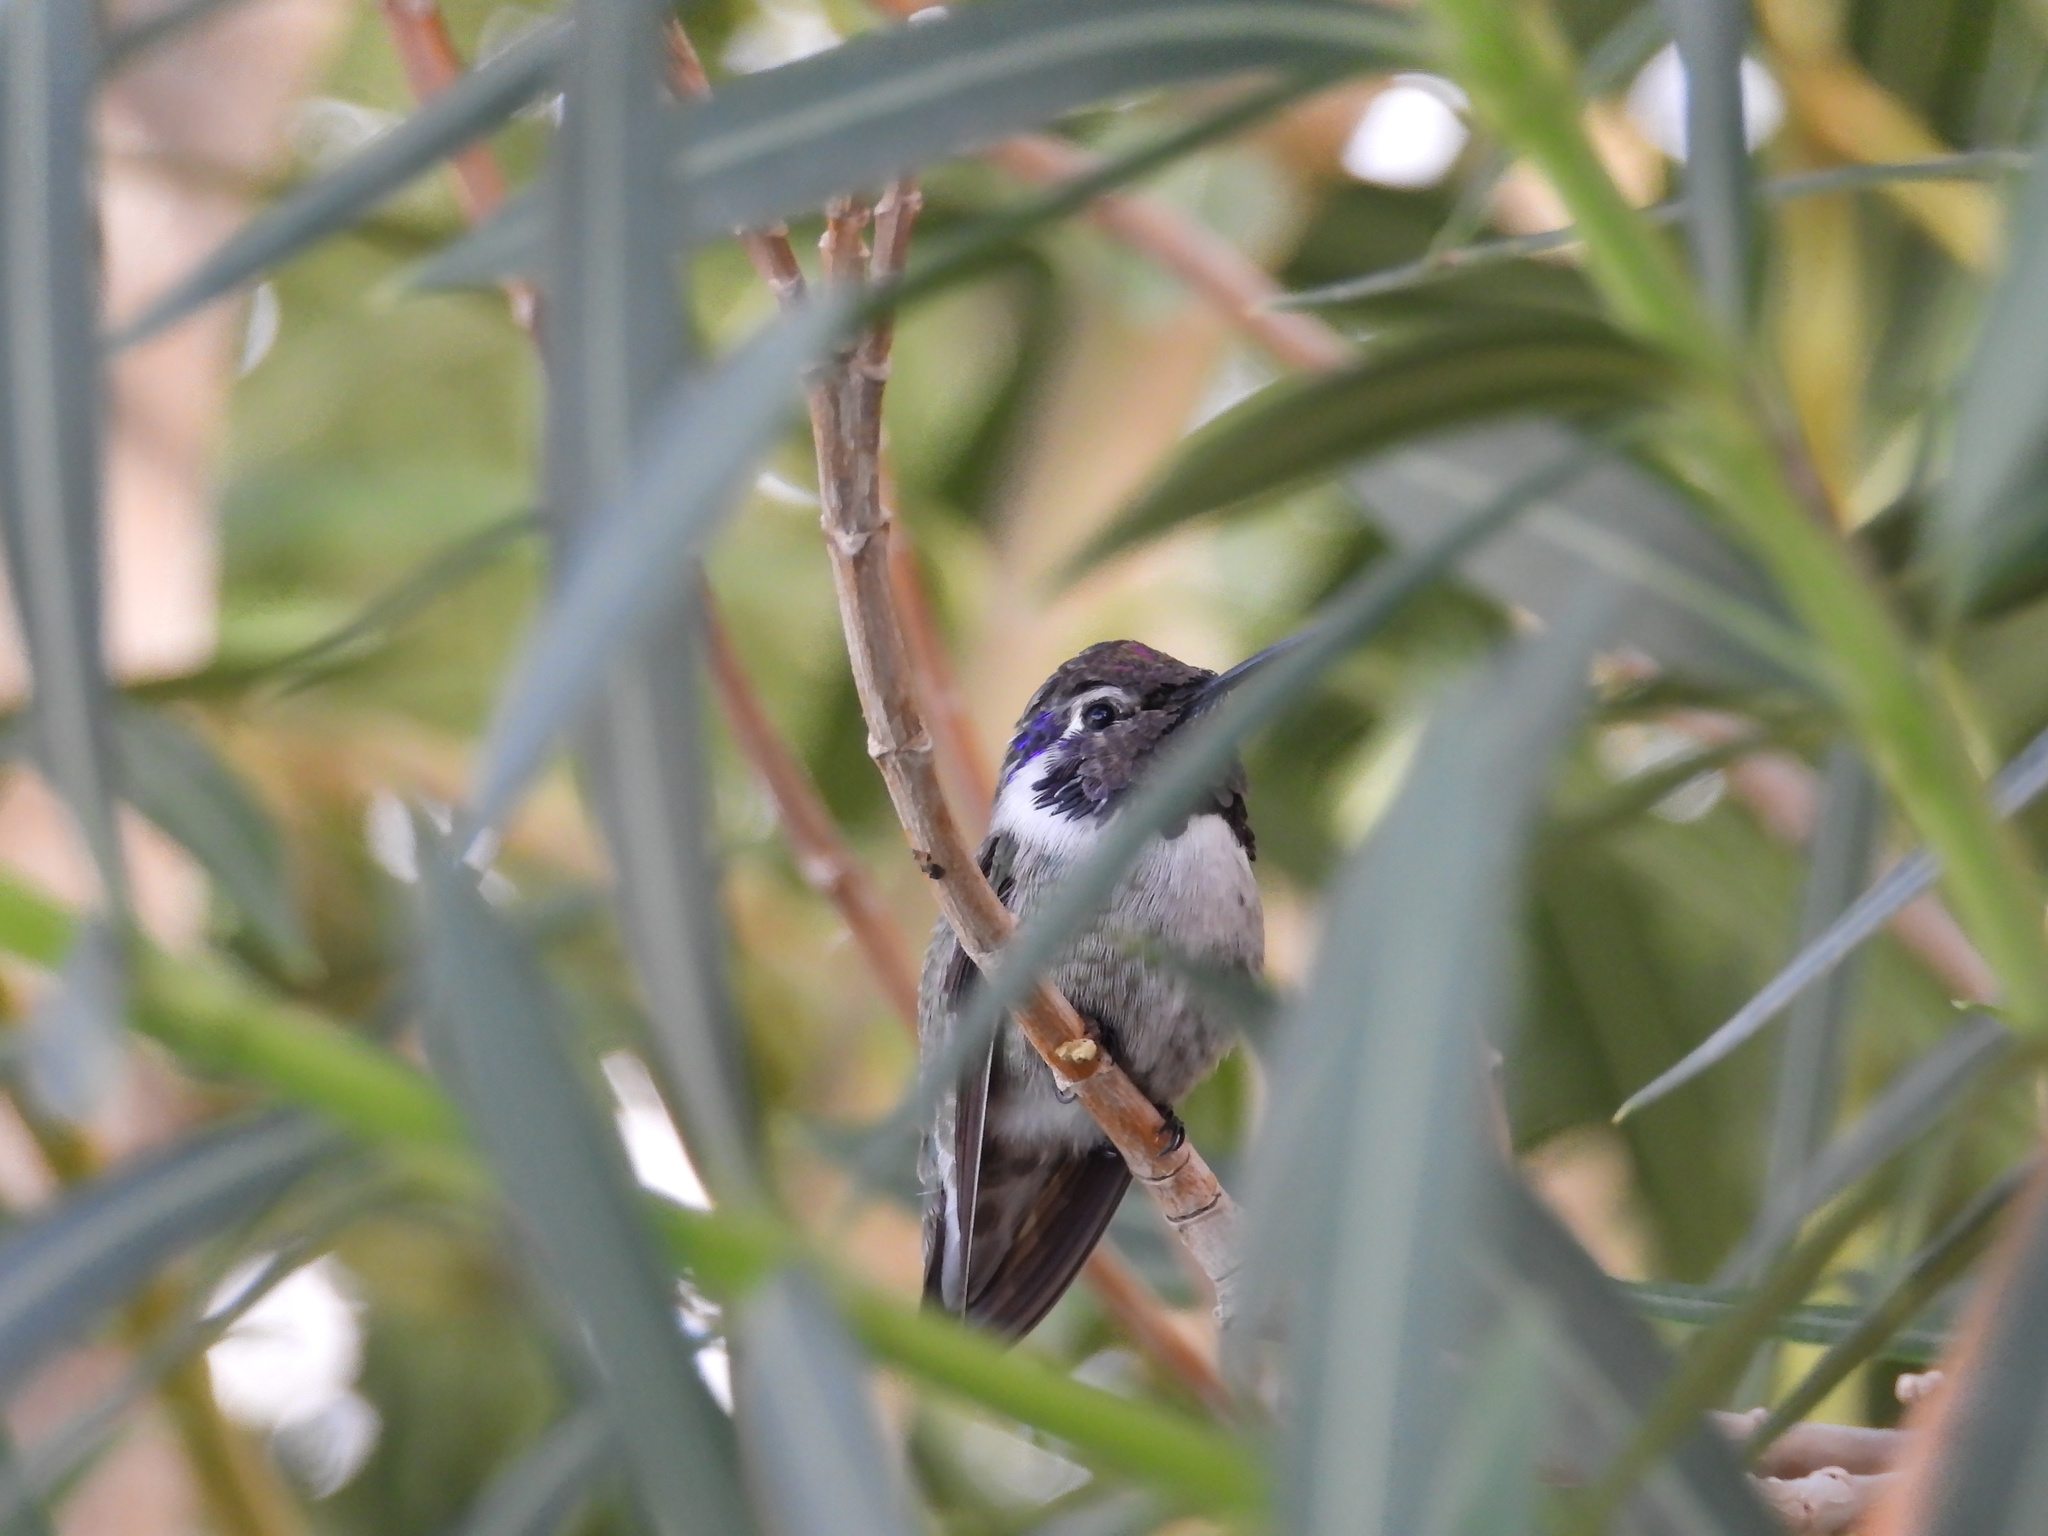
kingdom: Animalia
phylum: Chordata
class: Aves
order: Apodiformes
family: Trochilidae
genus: Calypte
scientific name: Calypte costae
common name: Costa's hummingbird
